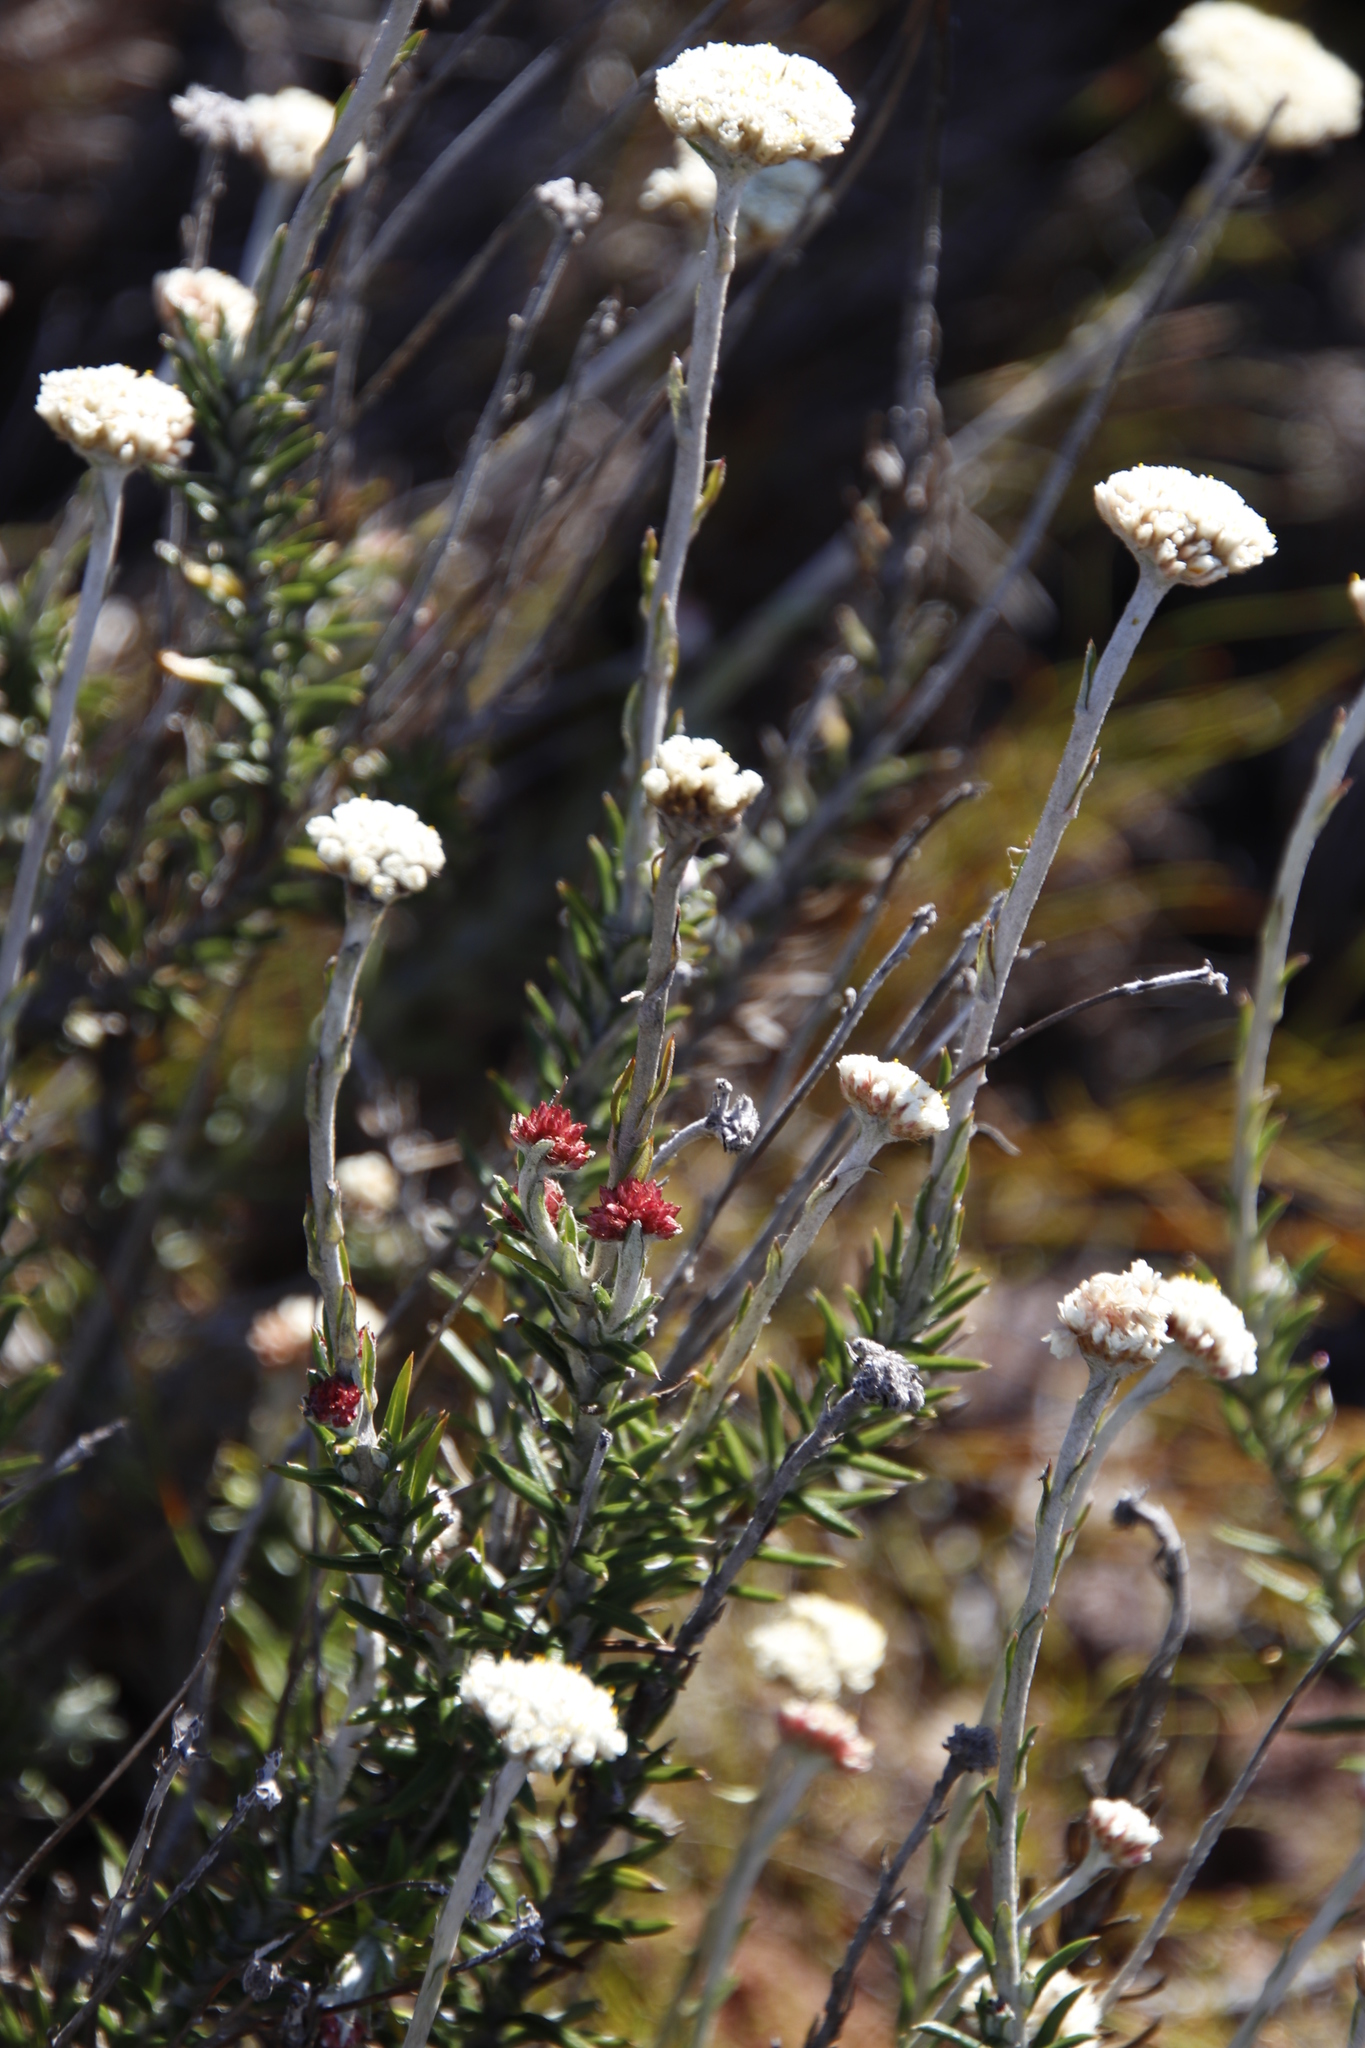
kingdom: Plantae
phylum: Tracheophyta
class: Magnoliopsida
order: Asterales
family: Asteraceae
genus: Anaxeton
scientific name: Anaxeton laeve
